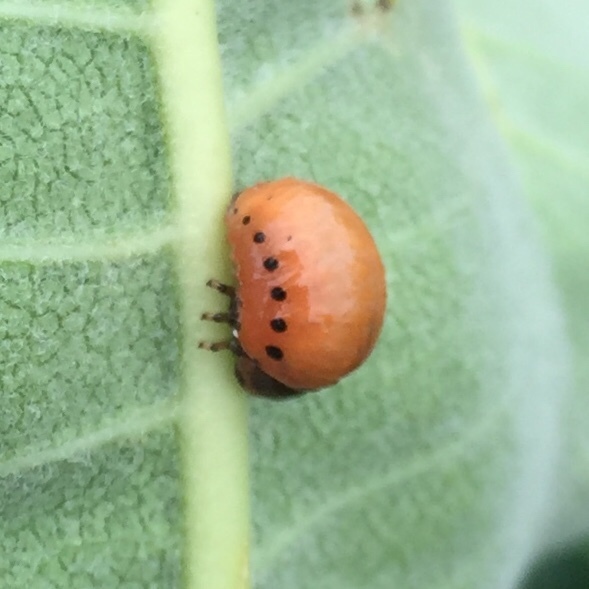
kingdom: Animalia
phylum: Arthropoda
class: Insecta
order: Coleoptera
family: Chrysomelidae
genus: Labidomera
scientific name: Labidomera clivicollis
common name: Swamp milkweed leaf beetle
